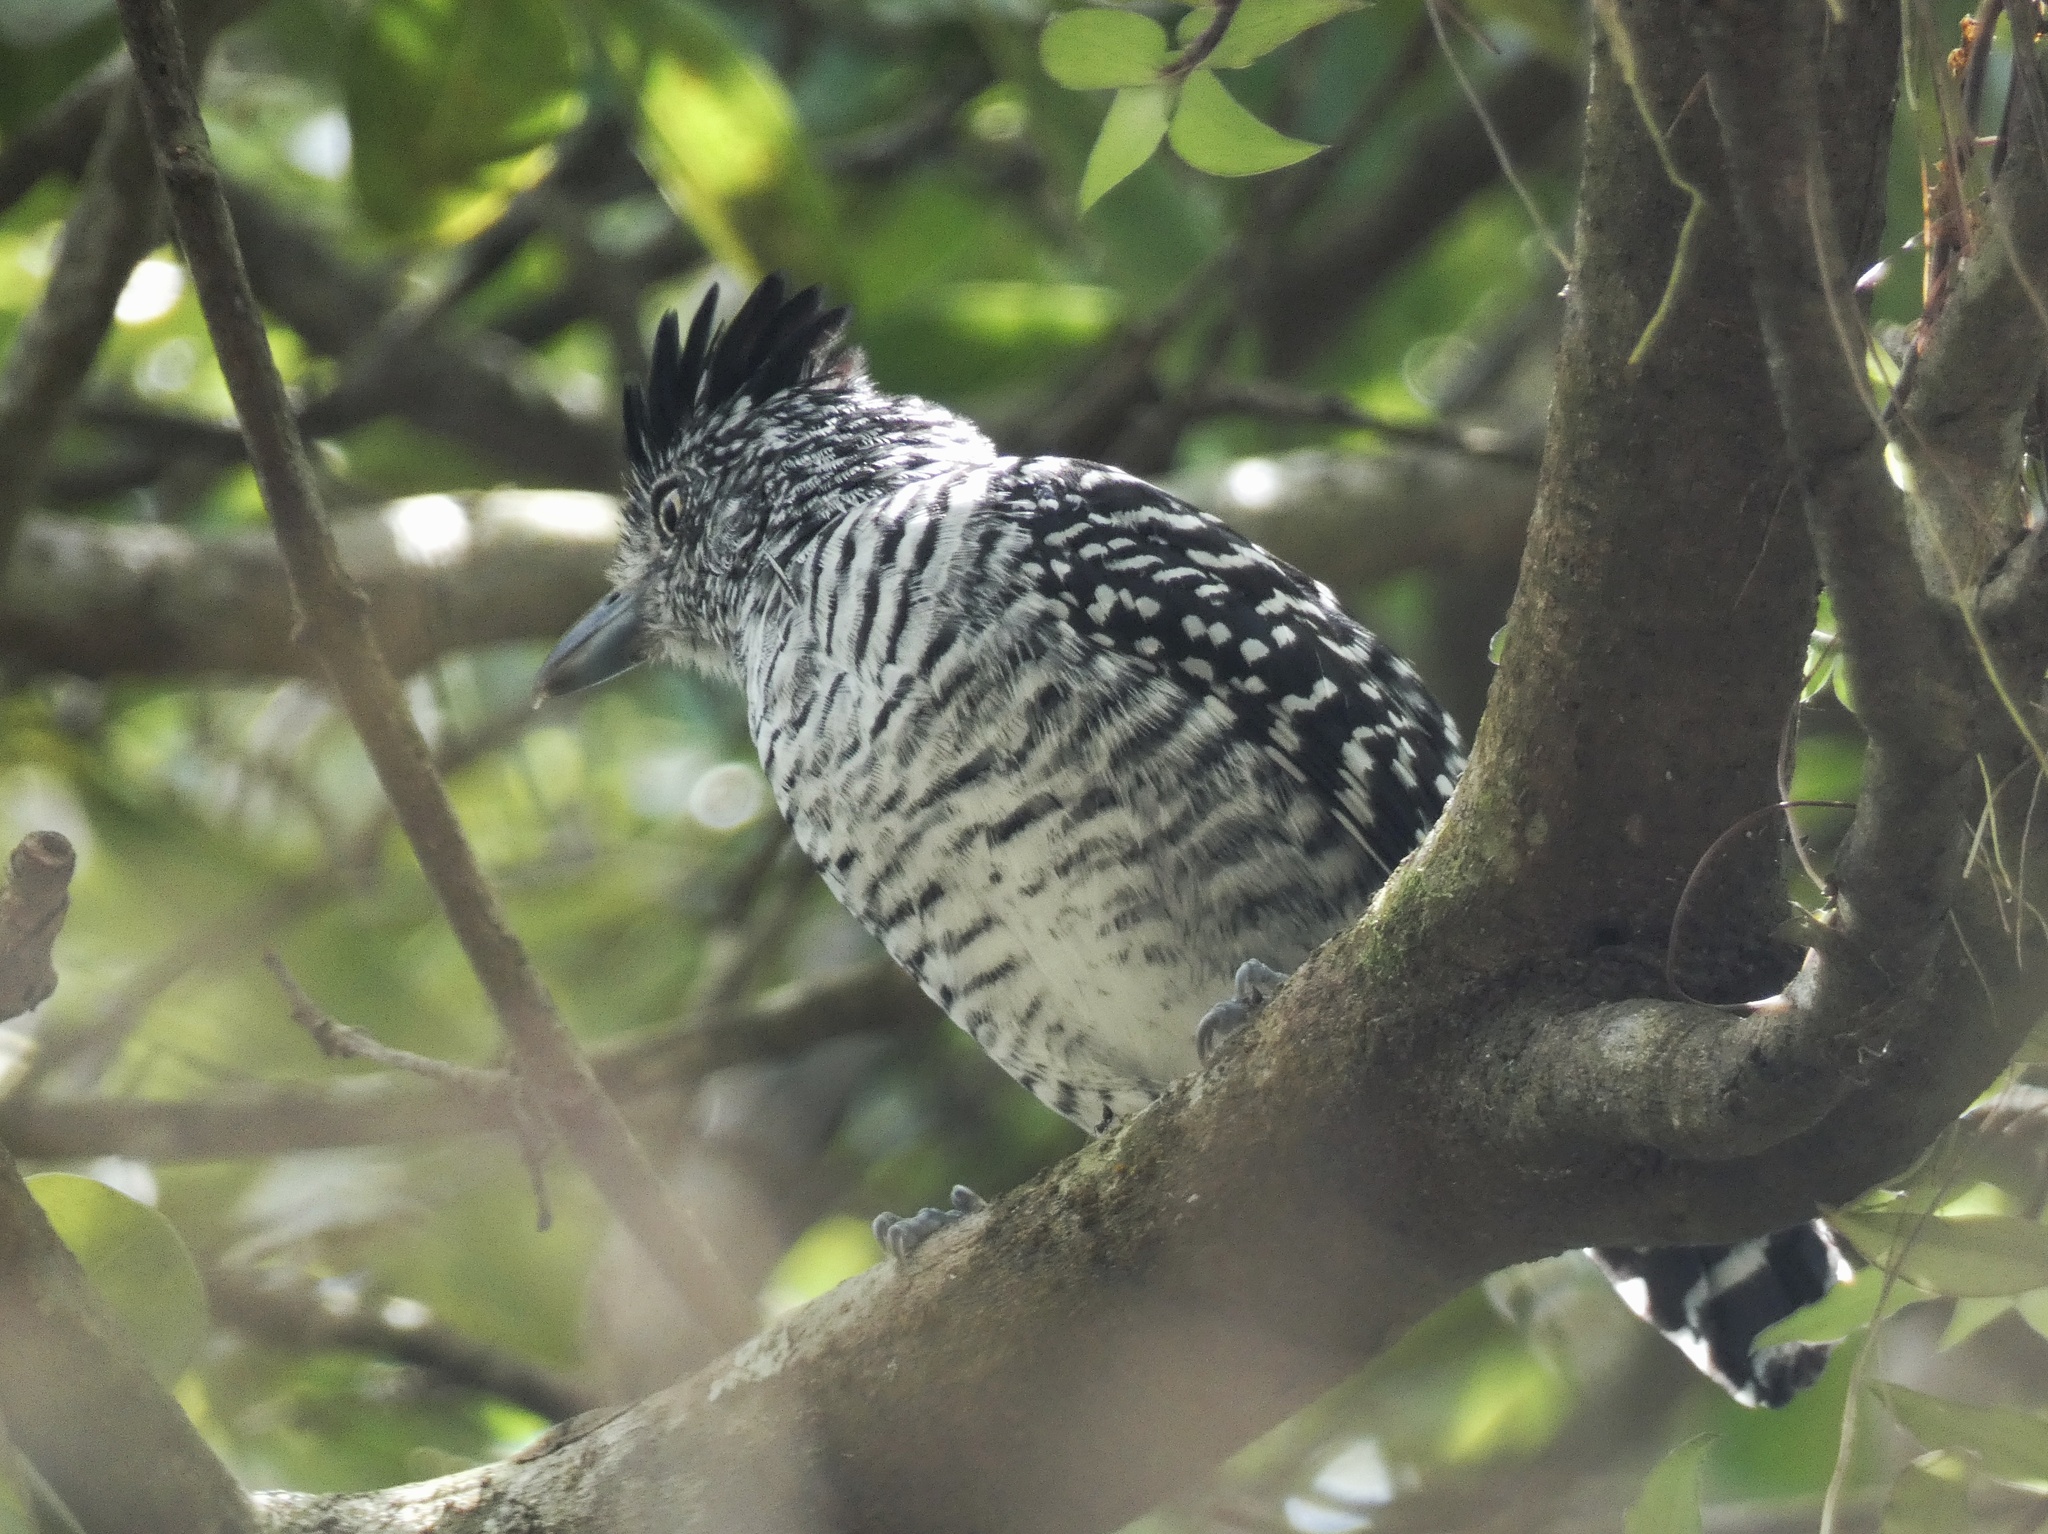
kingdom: Animalia
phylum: Chordata
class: Aves
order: Passeriformes
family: Thamnophilidae
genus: Thamnophilus
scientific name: Thamnophilus doliatus
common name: Barred antshrike
